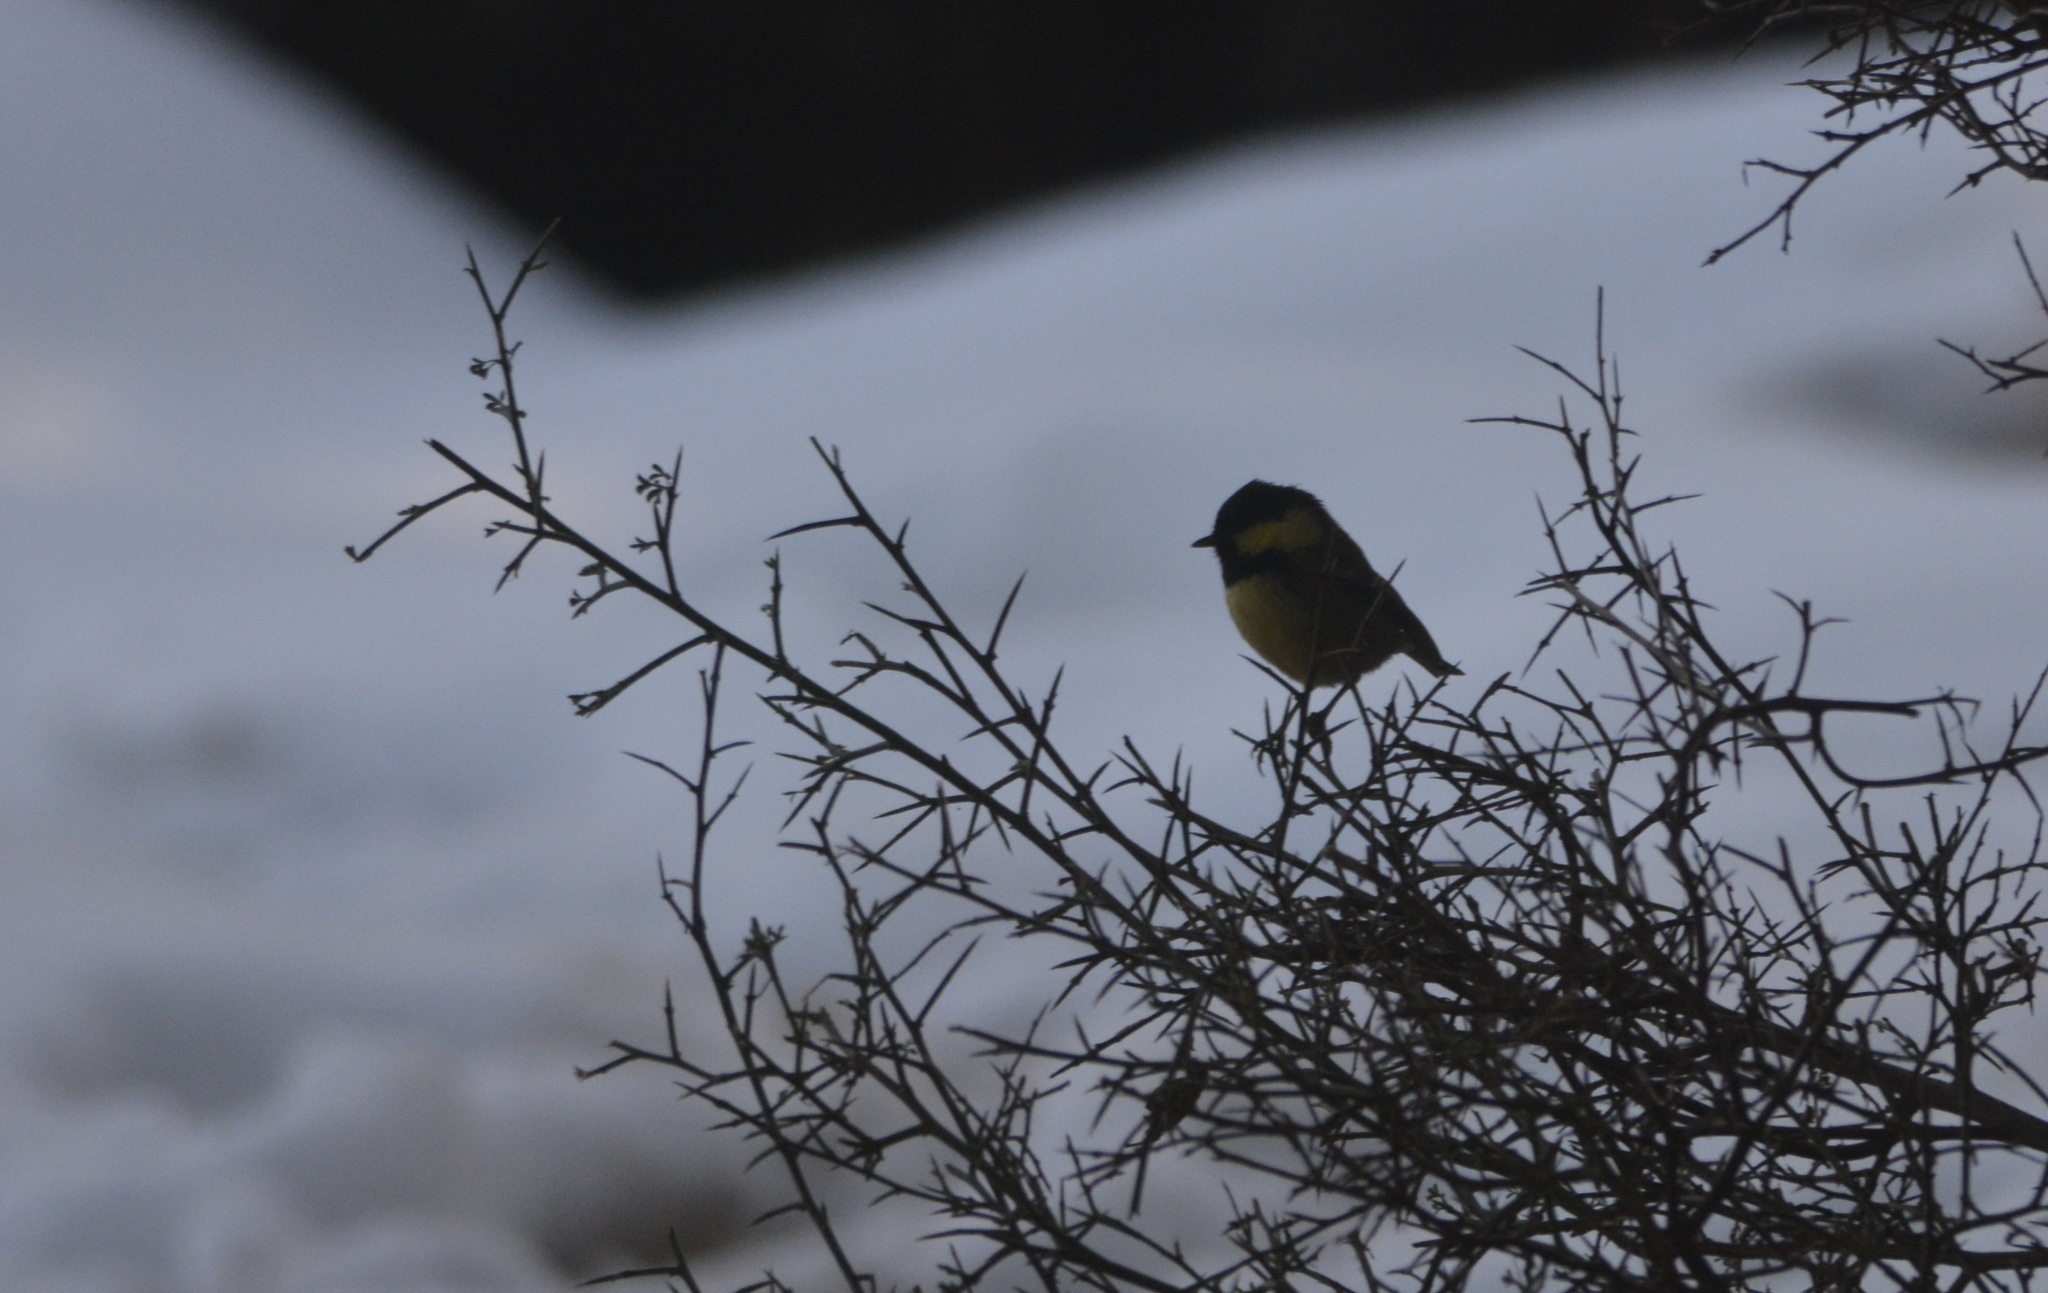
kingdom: Animalia
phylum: Chordata
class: Aves
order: Passeriformes
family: Paridae
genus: Periparus
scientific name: Periparus ater
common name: Coal tit
